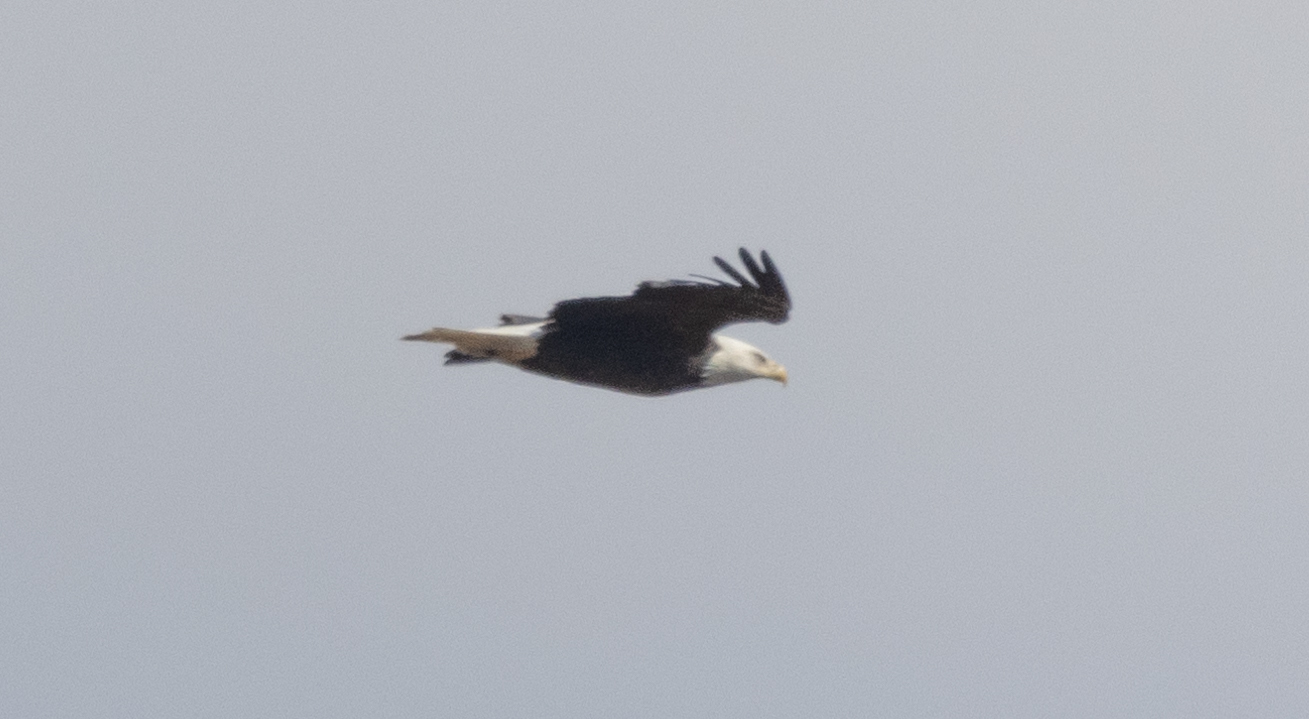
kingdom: Animalia
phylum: Chordata
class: Aves
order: Accipitriformes
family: Accipitridae
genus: Haliaeetus
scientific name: Haliaeetus leucocephalus
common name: Bald eagle
